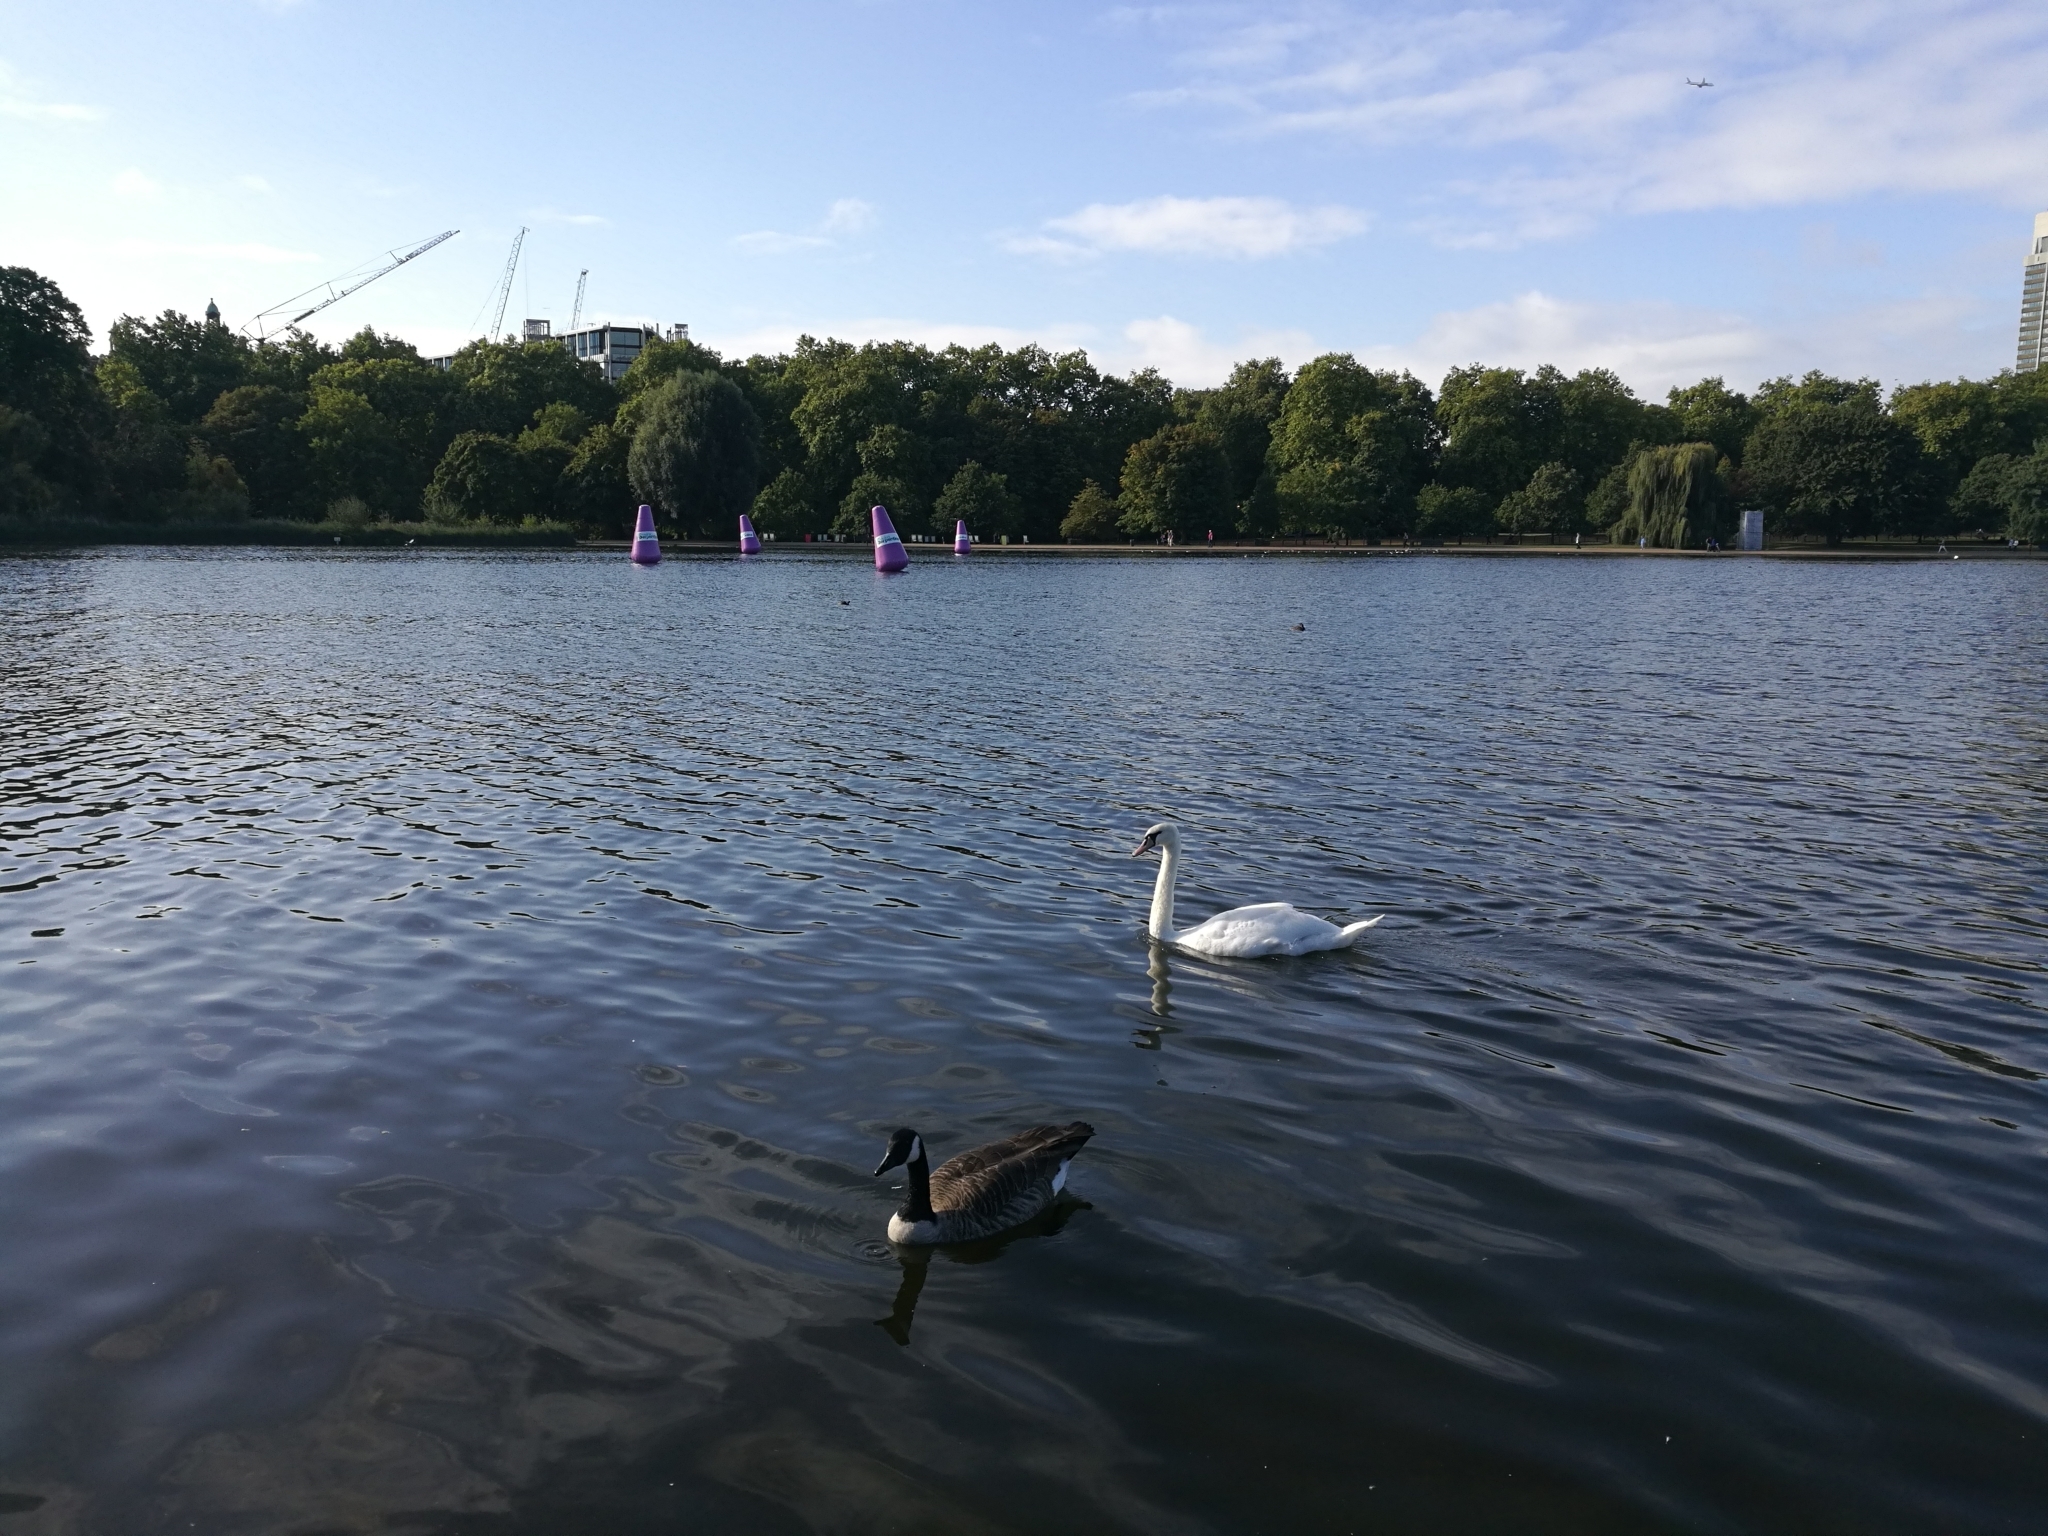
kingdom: Animalia
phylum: Chordata
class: Aves
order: Anseriformes
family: Anatidae
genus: Branta
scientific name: Branta canadensis
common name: Canada goose
